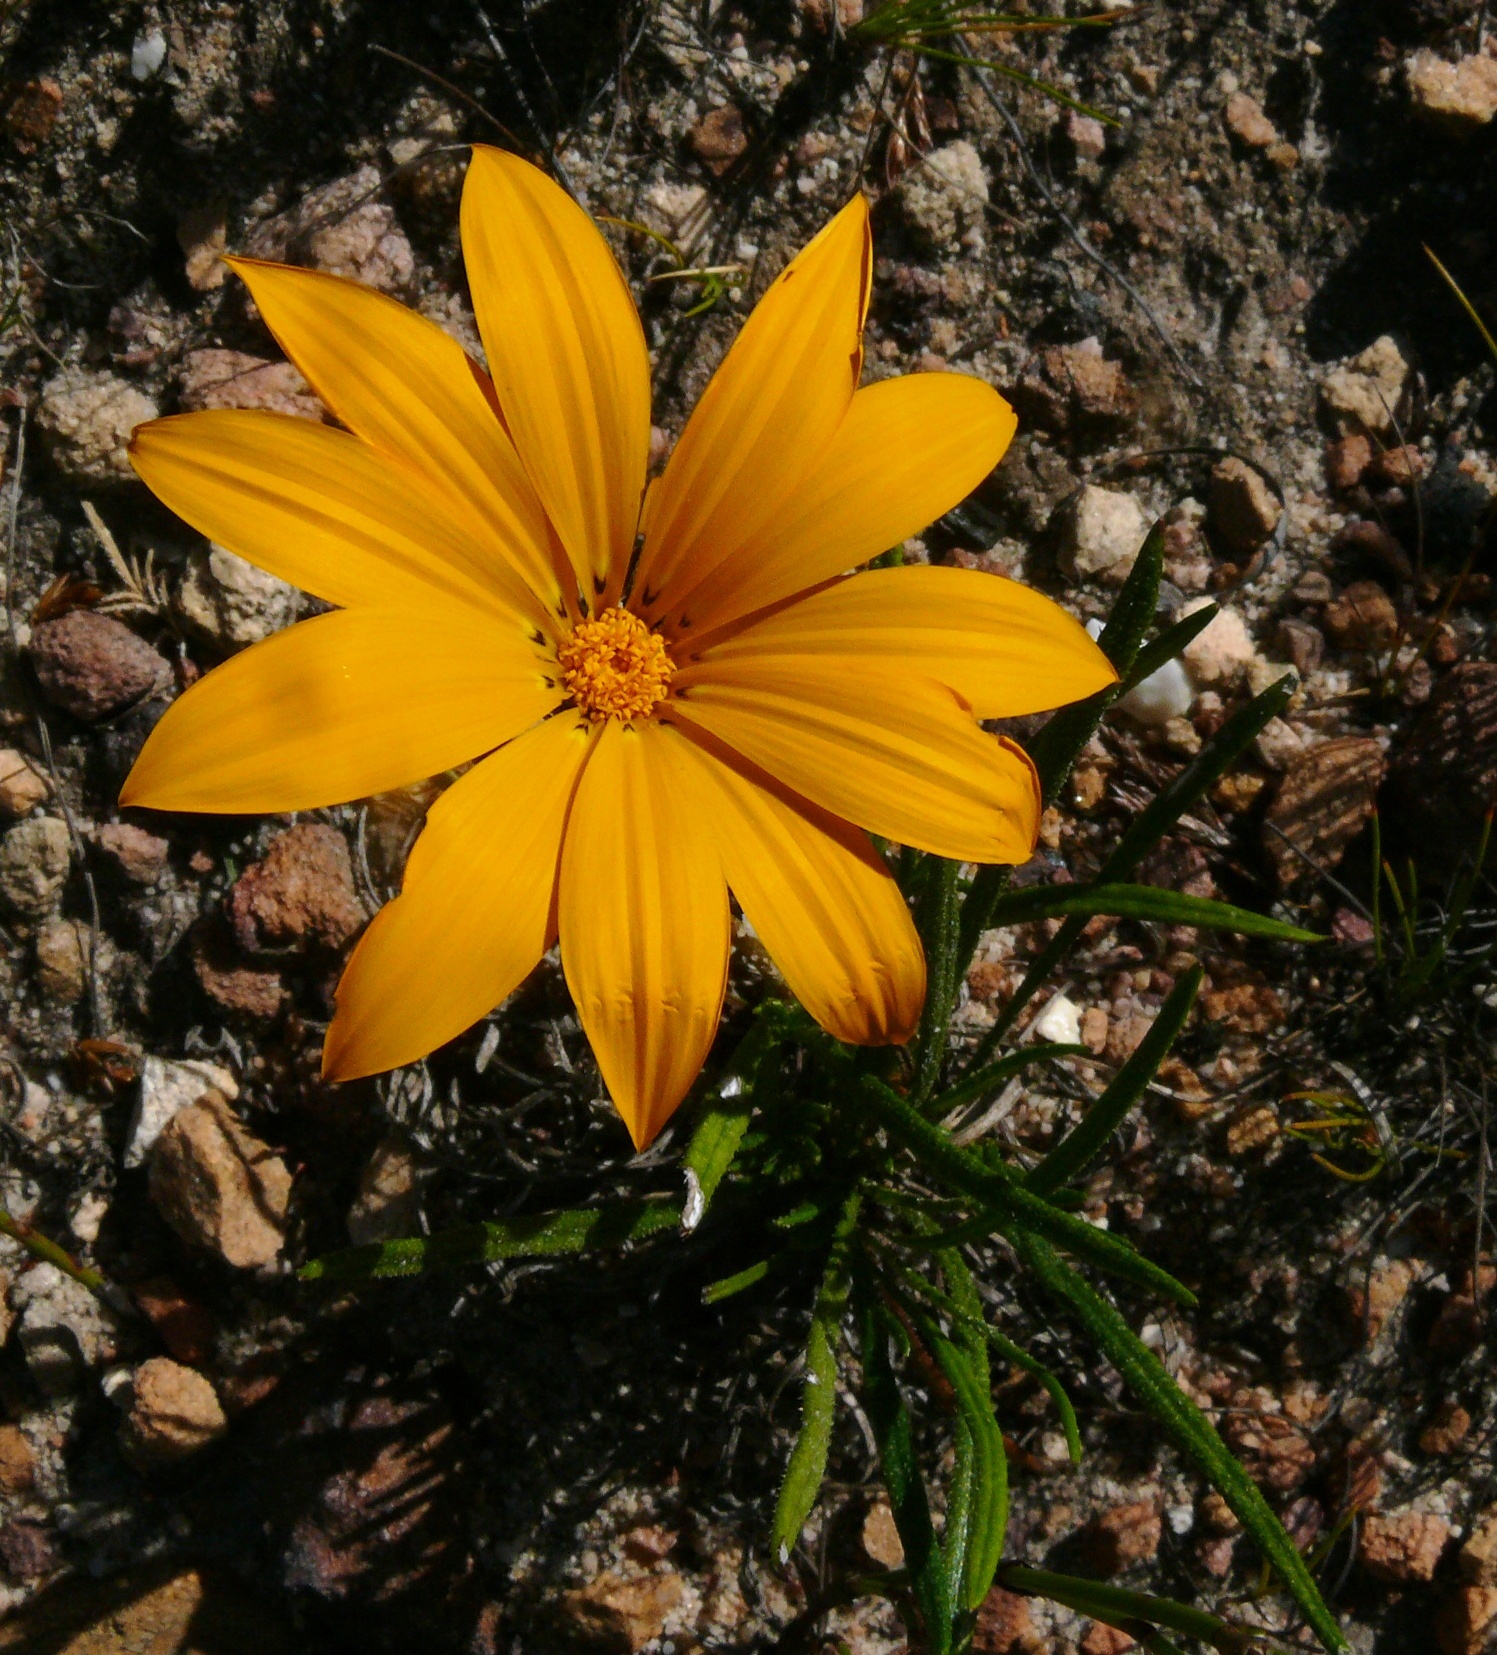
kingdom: Plantae
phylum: Tracheophyta
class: Magnoliopsida
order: Asterales
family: Asteraceae
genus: Gazania
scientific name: Gazania pectinata
